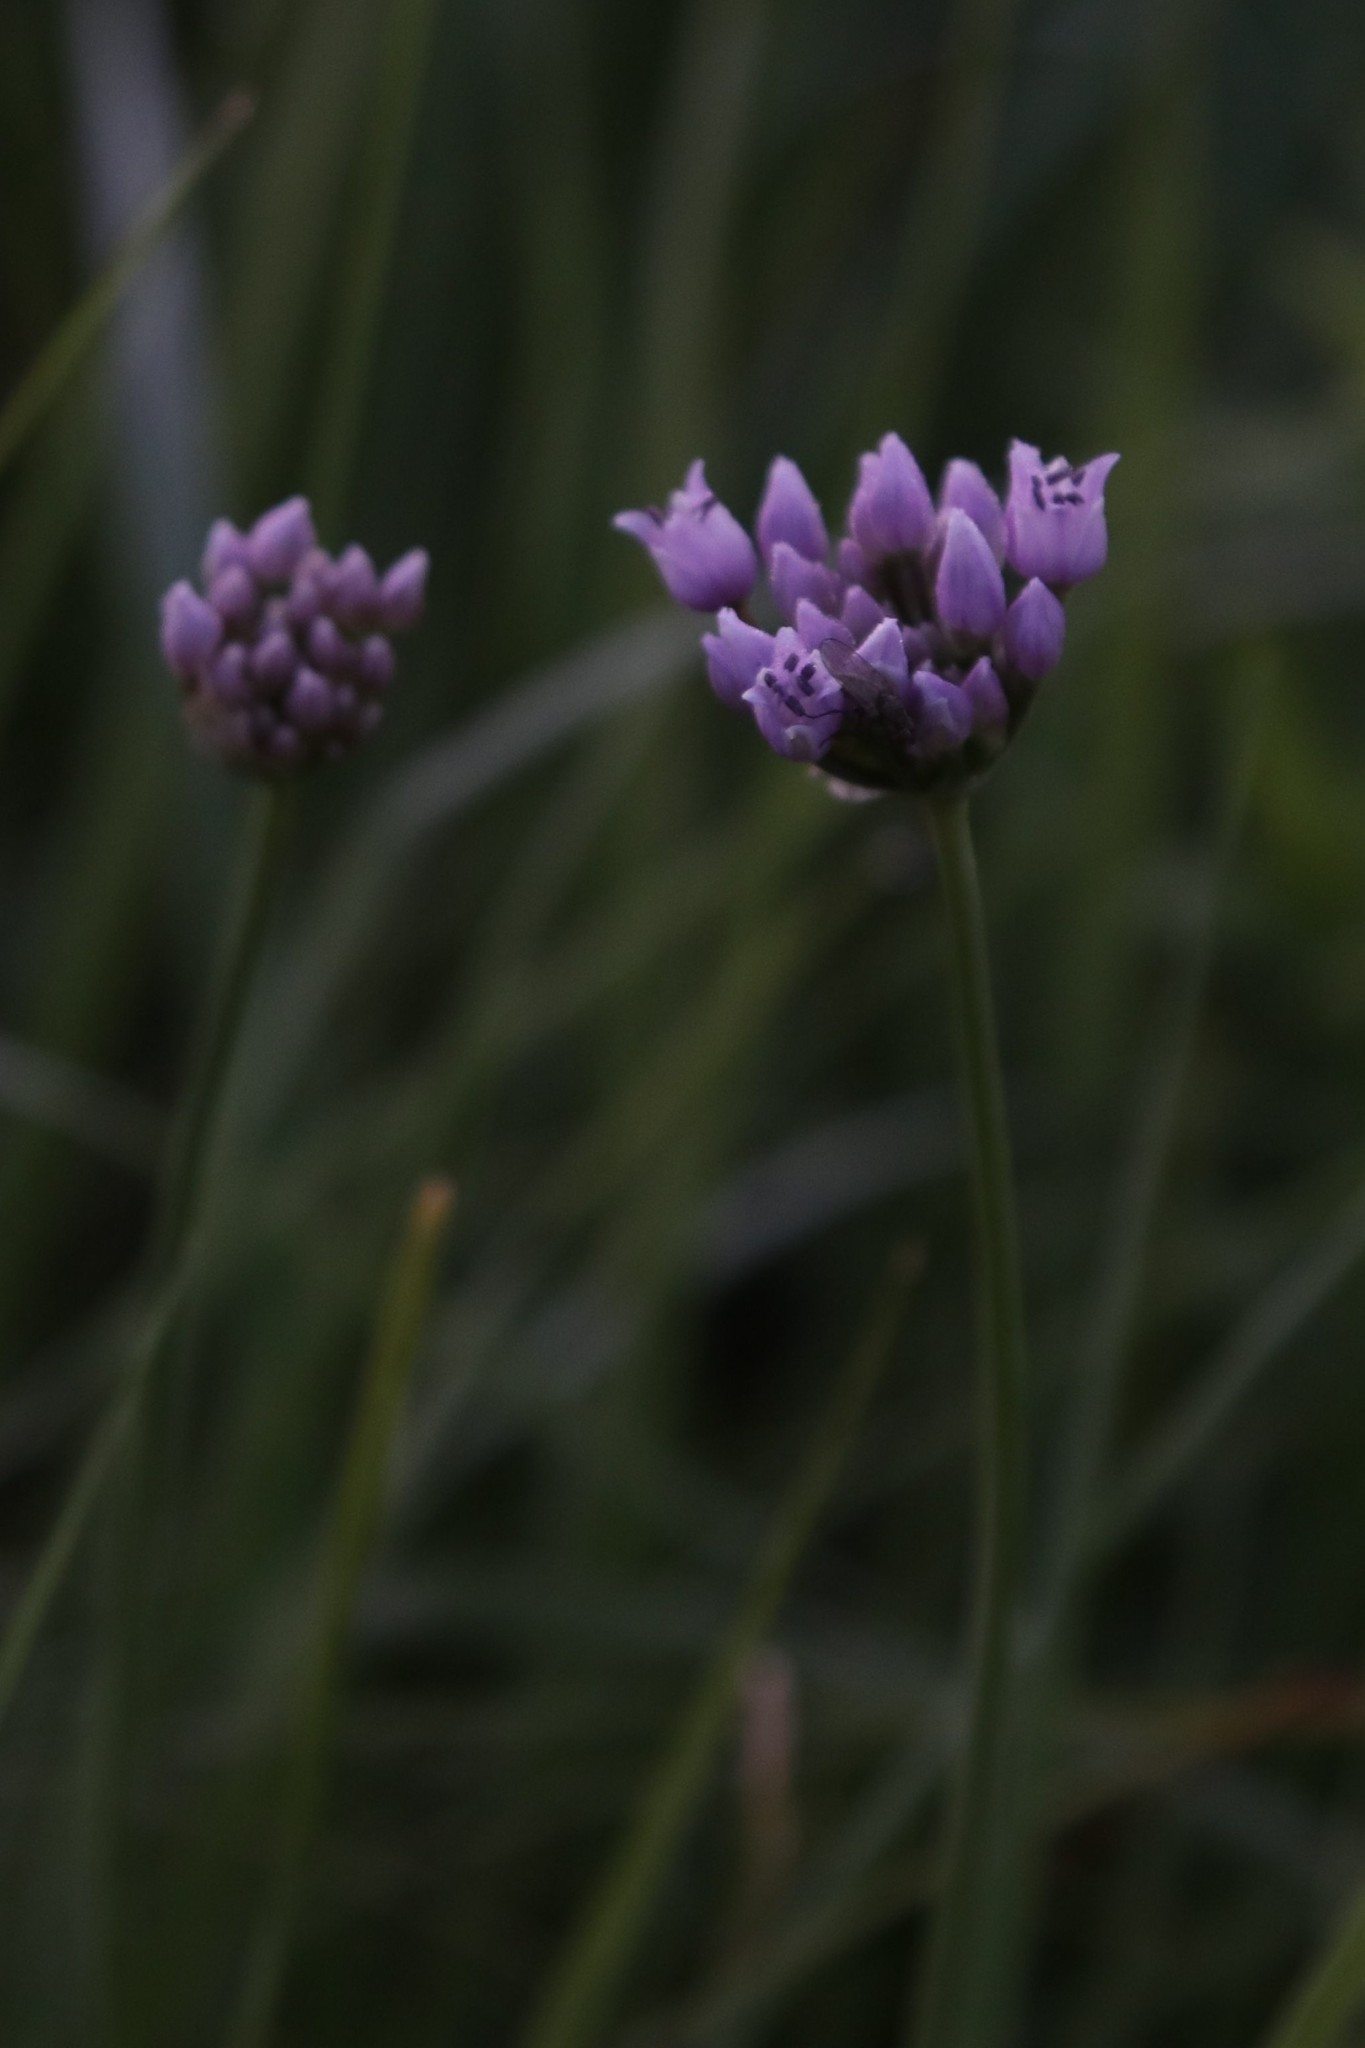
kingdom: Plantae
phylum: Tracheophyta
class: Liliopsida
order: Asparagales
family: Amaryllidaceae
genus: Allium
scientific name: Allium angulosum
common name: Mouse garlic
